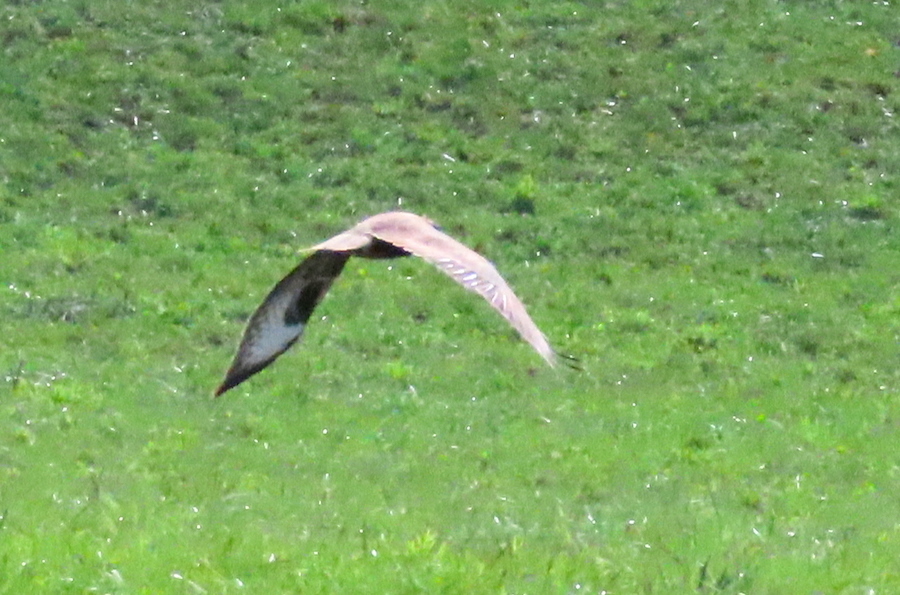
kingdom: Animalia
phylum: Chordata
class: Aves
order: Accipitriformes
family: Accipitridae
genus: Buteo
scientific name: Buteo buteo
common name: Common buzzard
